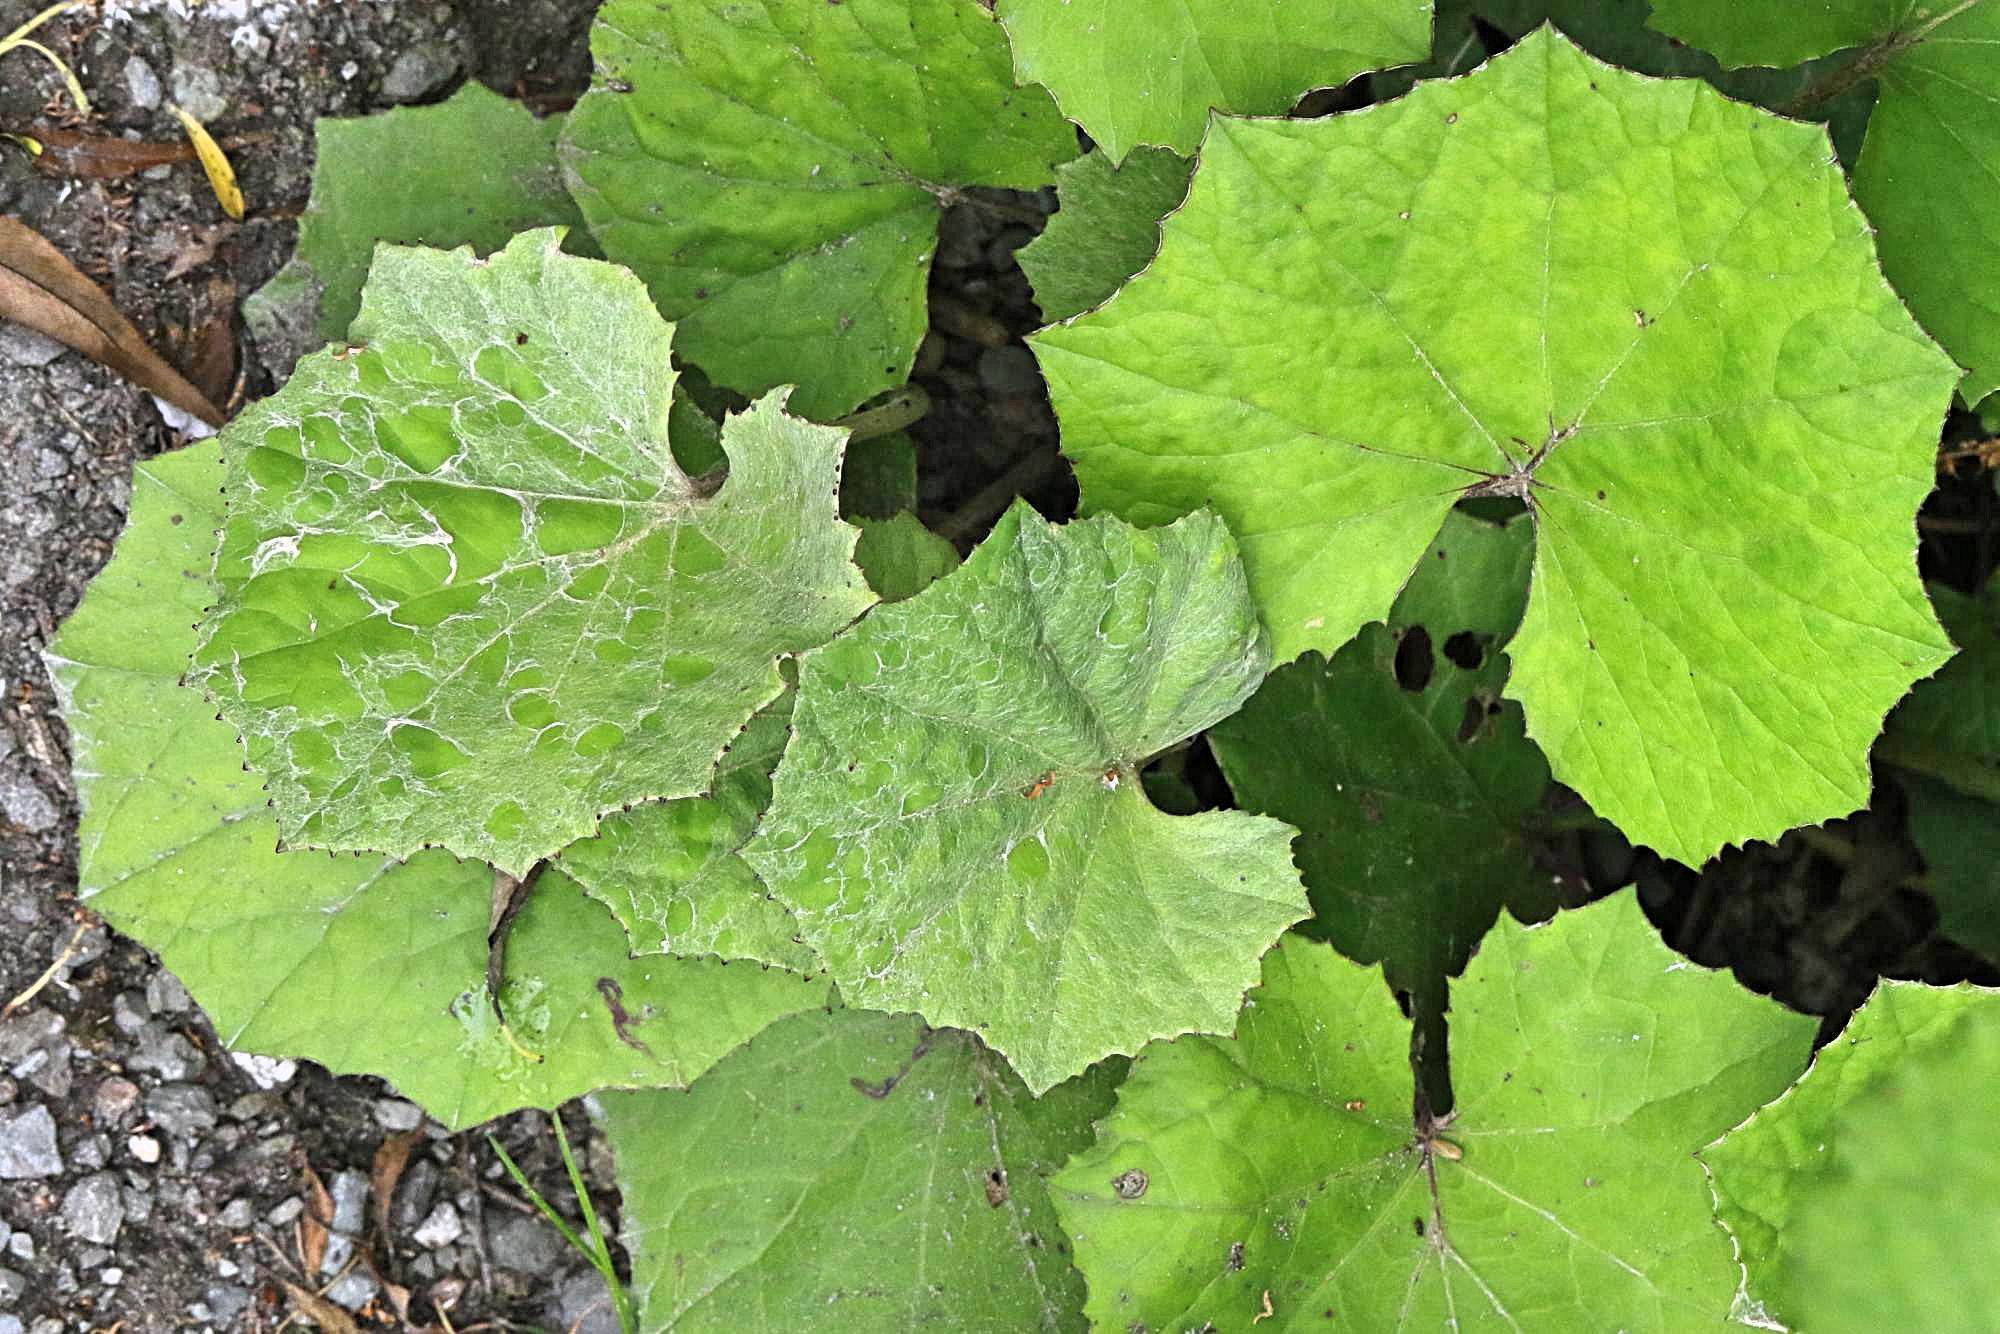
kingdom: Plantae
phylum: Tracheophyta
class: Magnoliopsida
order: Asterales
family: Asteraceae
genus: Tussilago
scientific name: Tussilago farfara
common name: Coltsfoot
